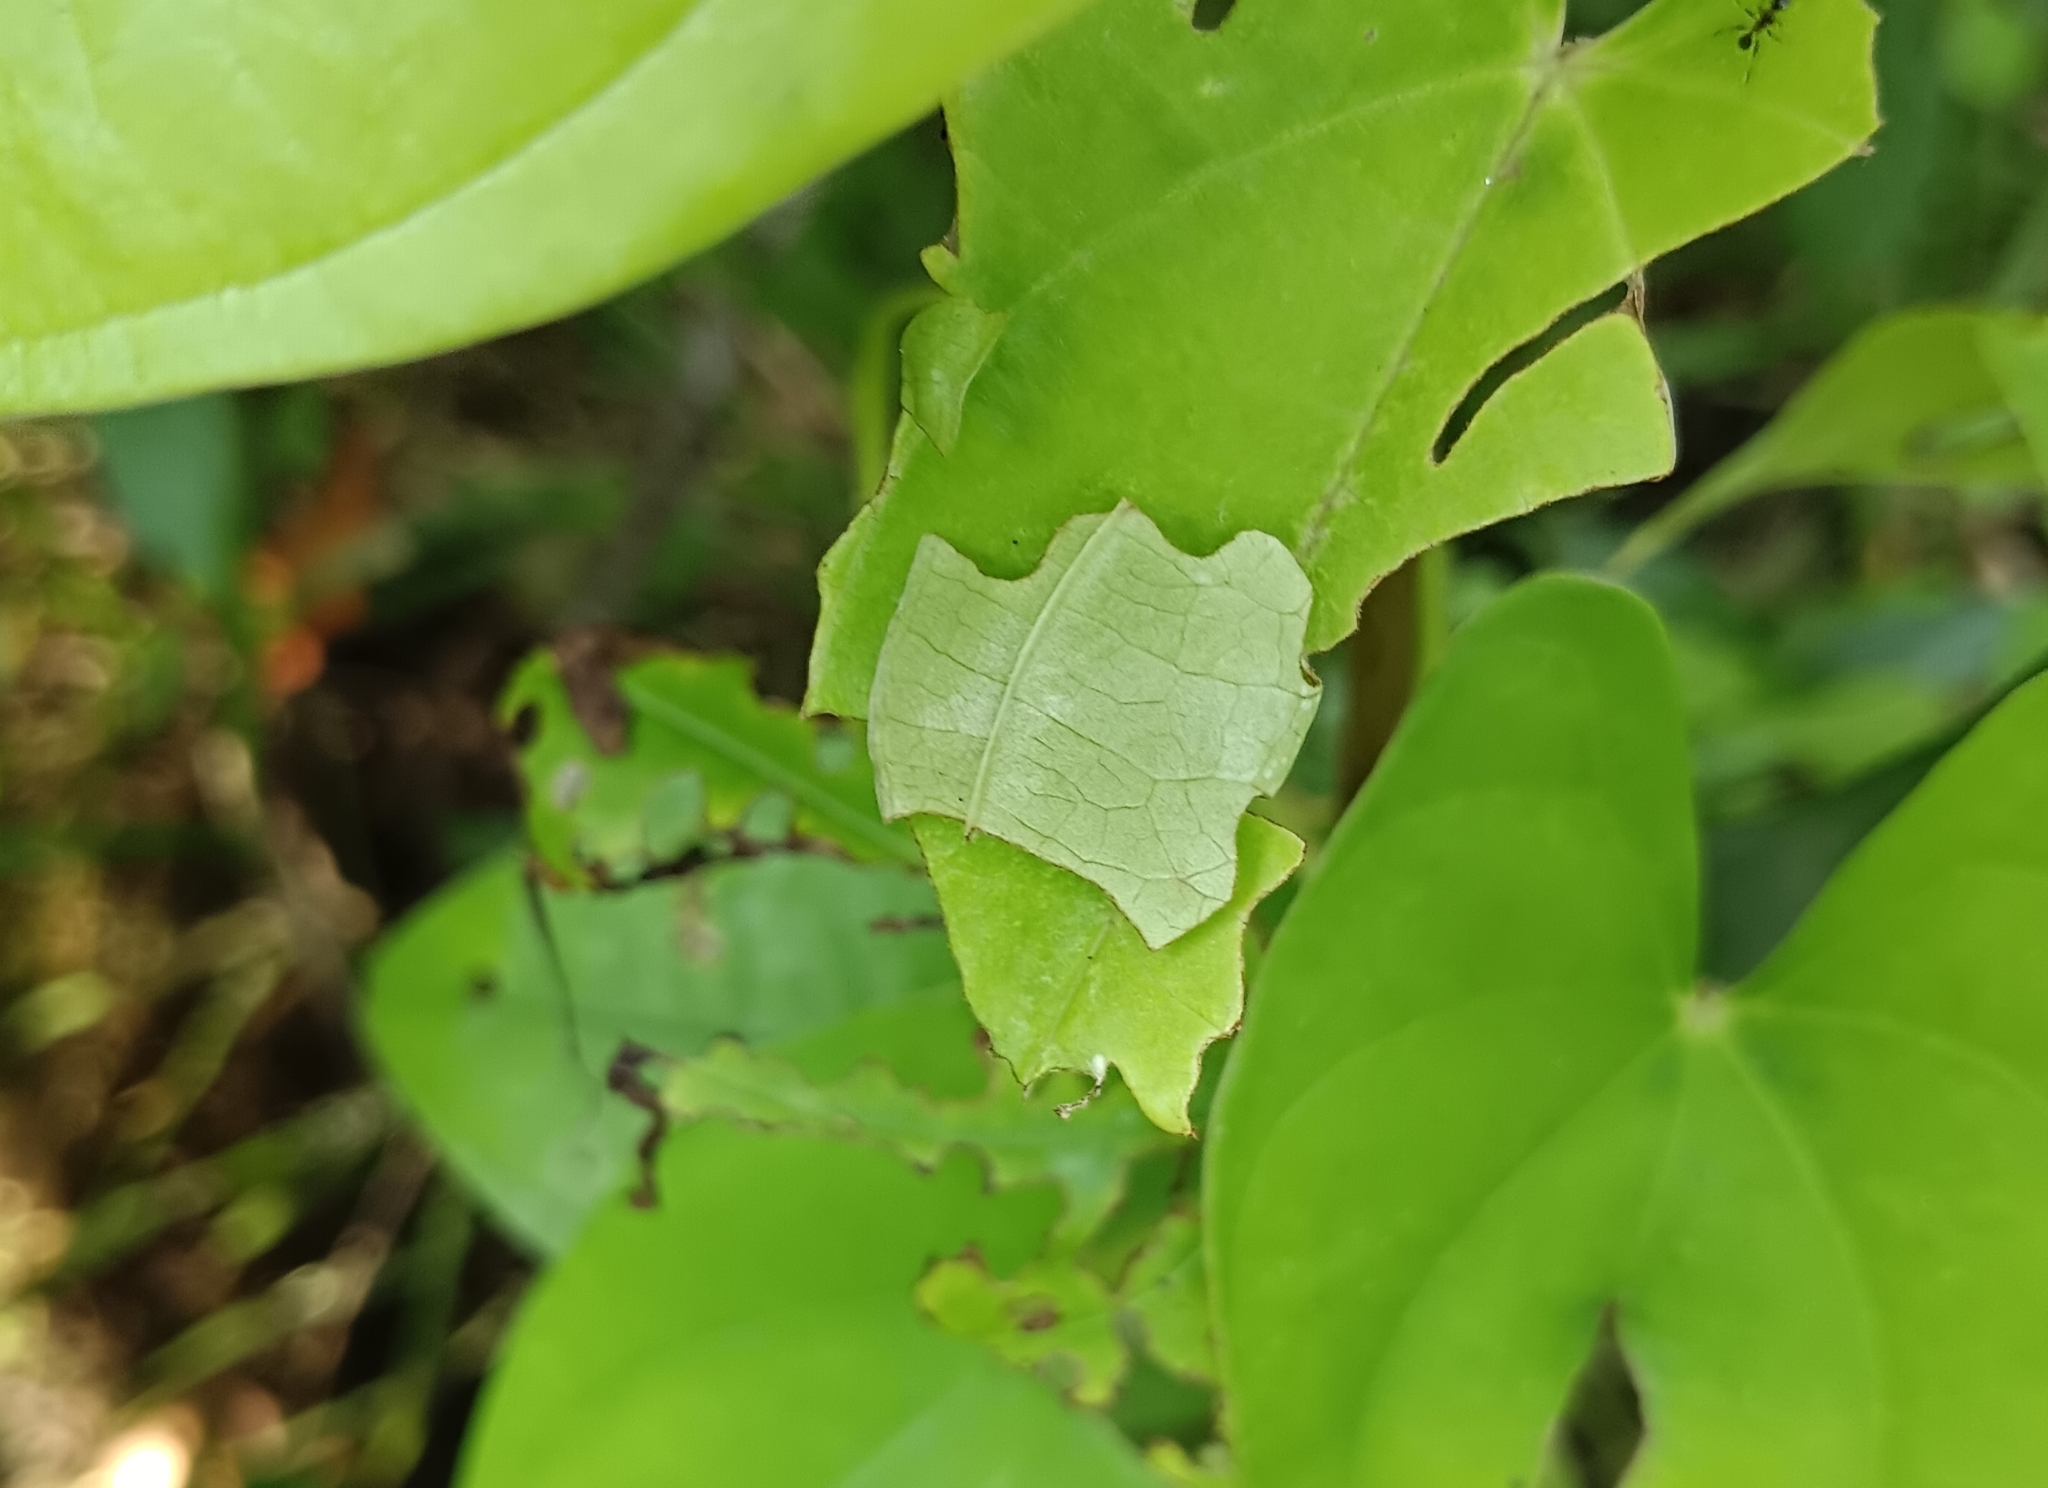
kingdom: Animalia
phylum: Arthropoda
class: Insecta
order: Lepidoptera
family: Hesperiidae
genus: Tagiades
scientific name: Tagiades litigiosa
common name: Water snow flat
